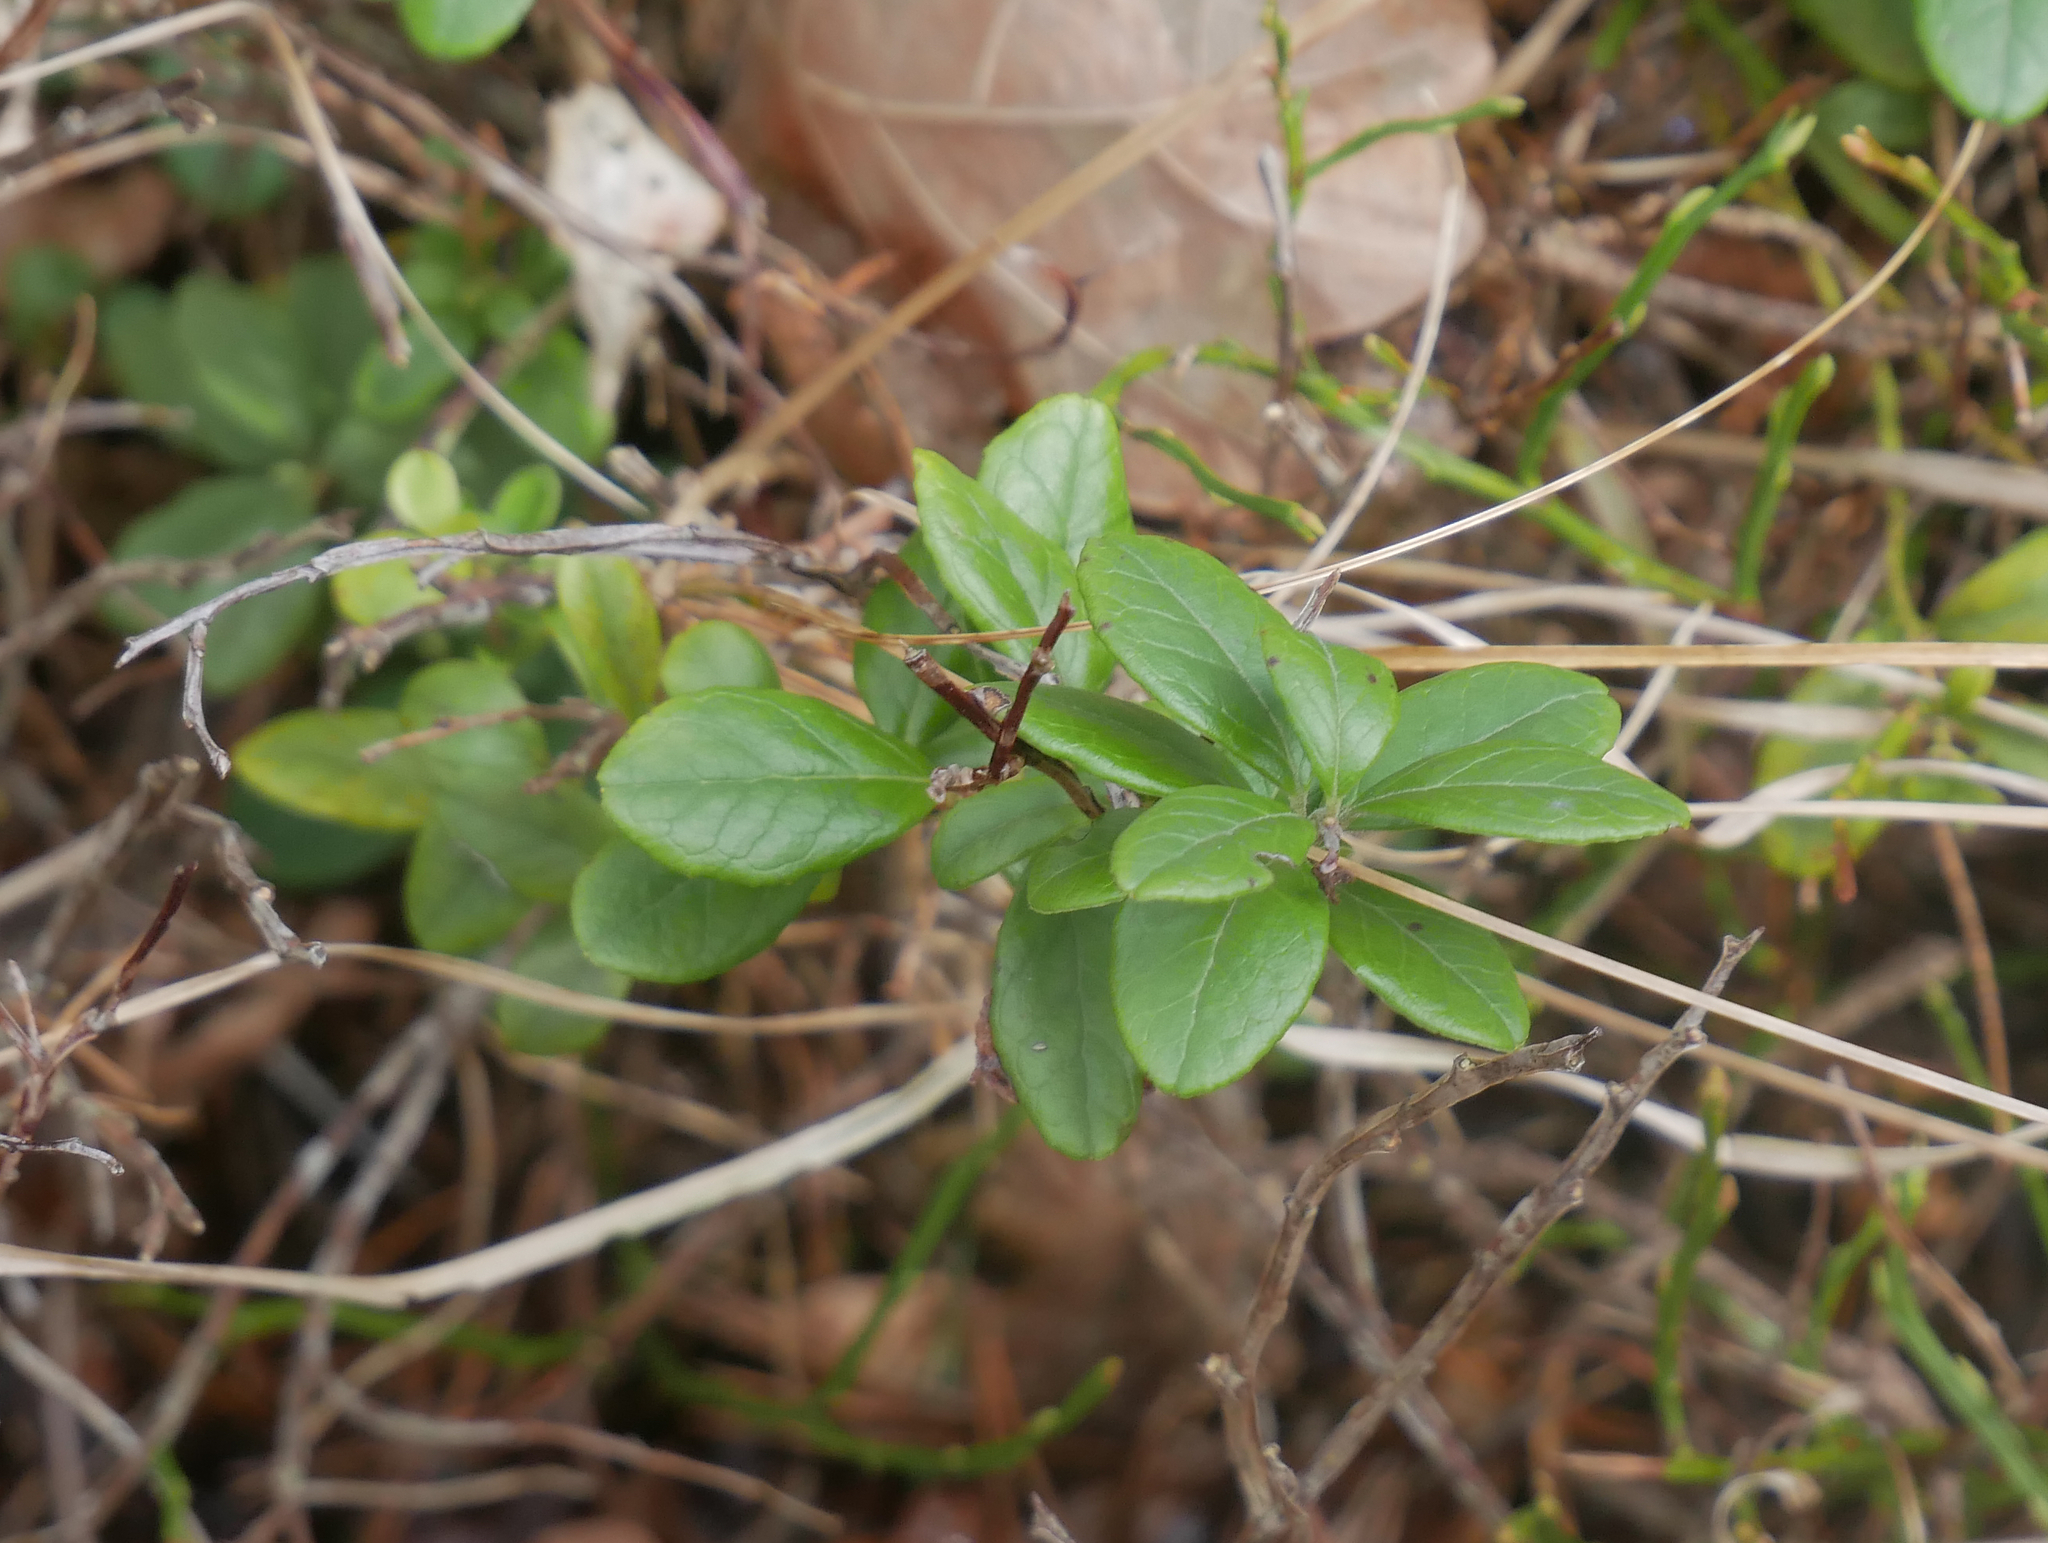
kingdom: Plantae
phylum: Tracheophyta
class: Magnoliopsida
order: Ericales
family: Ericaceae
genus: Vaccinium
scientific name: Vaccinium vitis-idaea
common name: Cowberry
